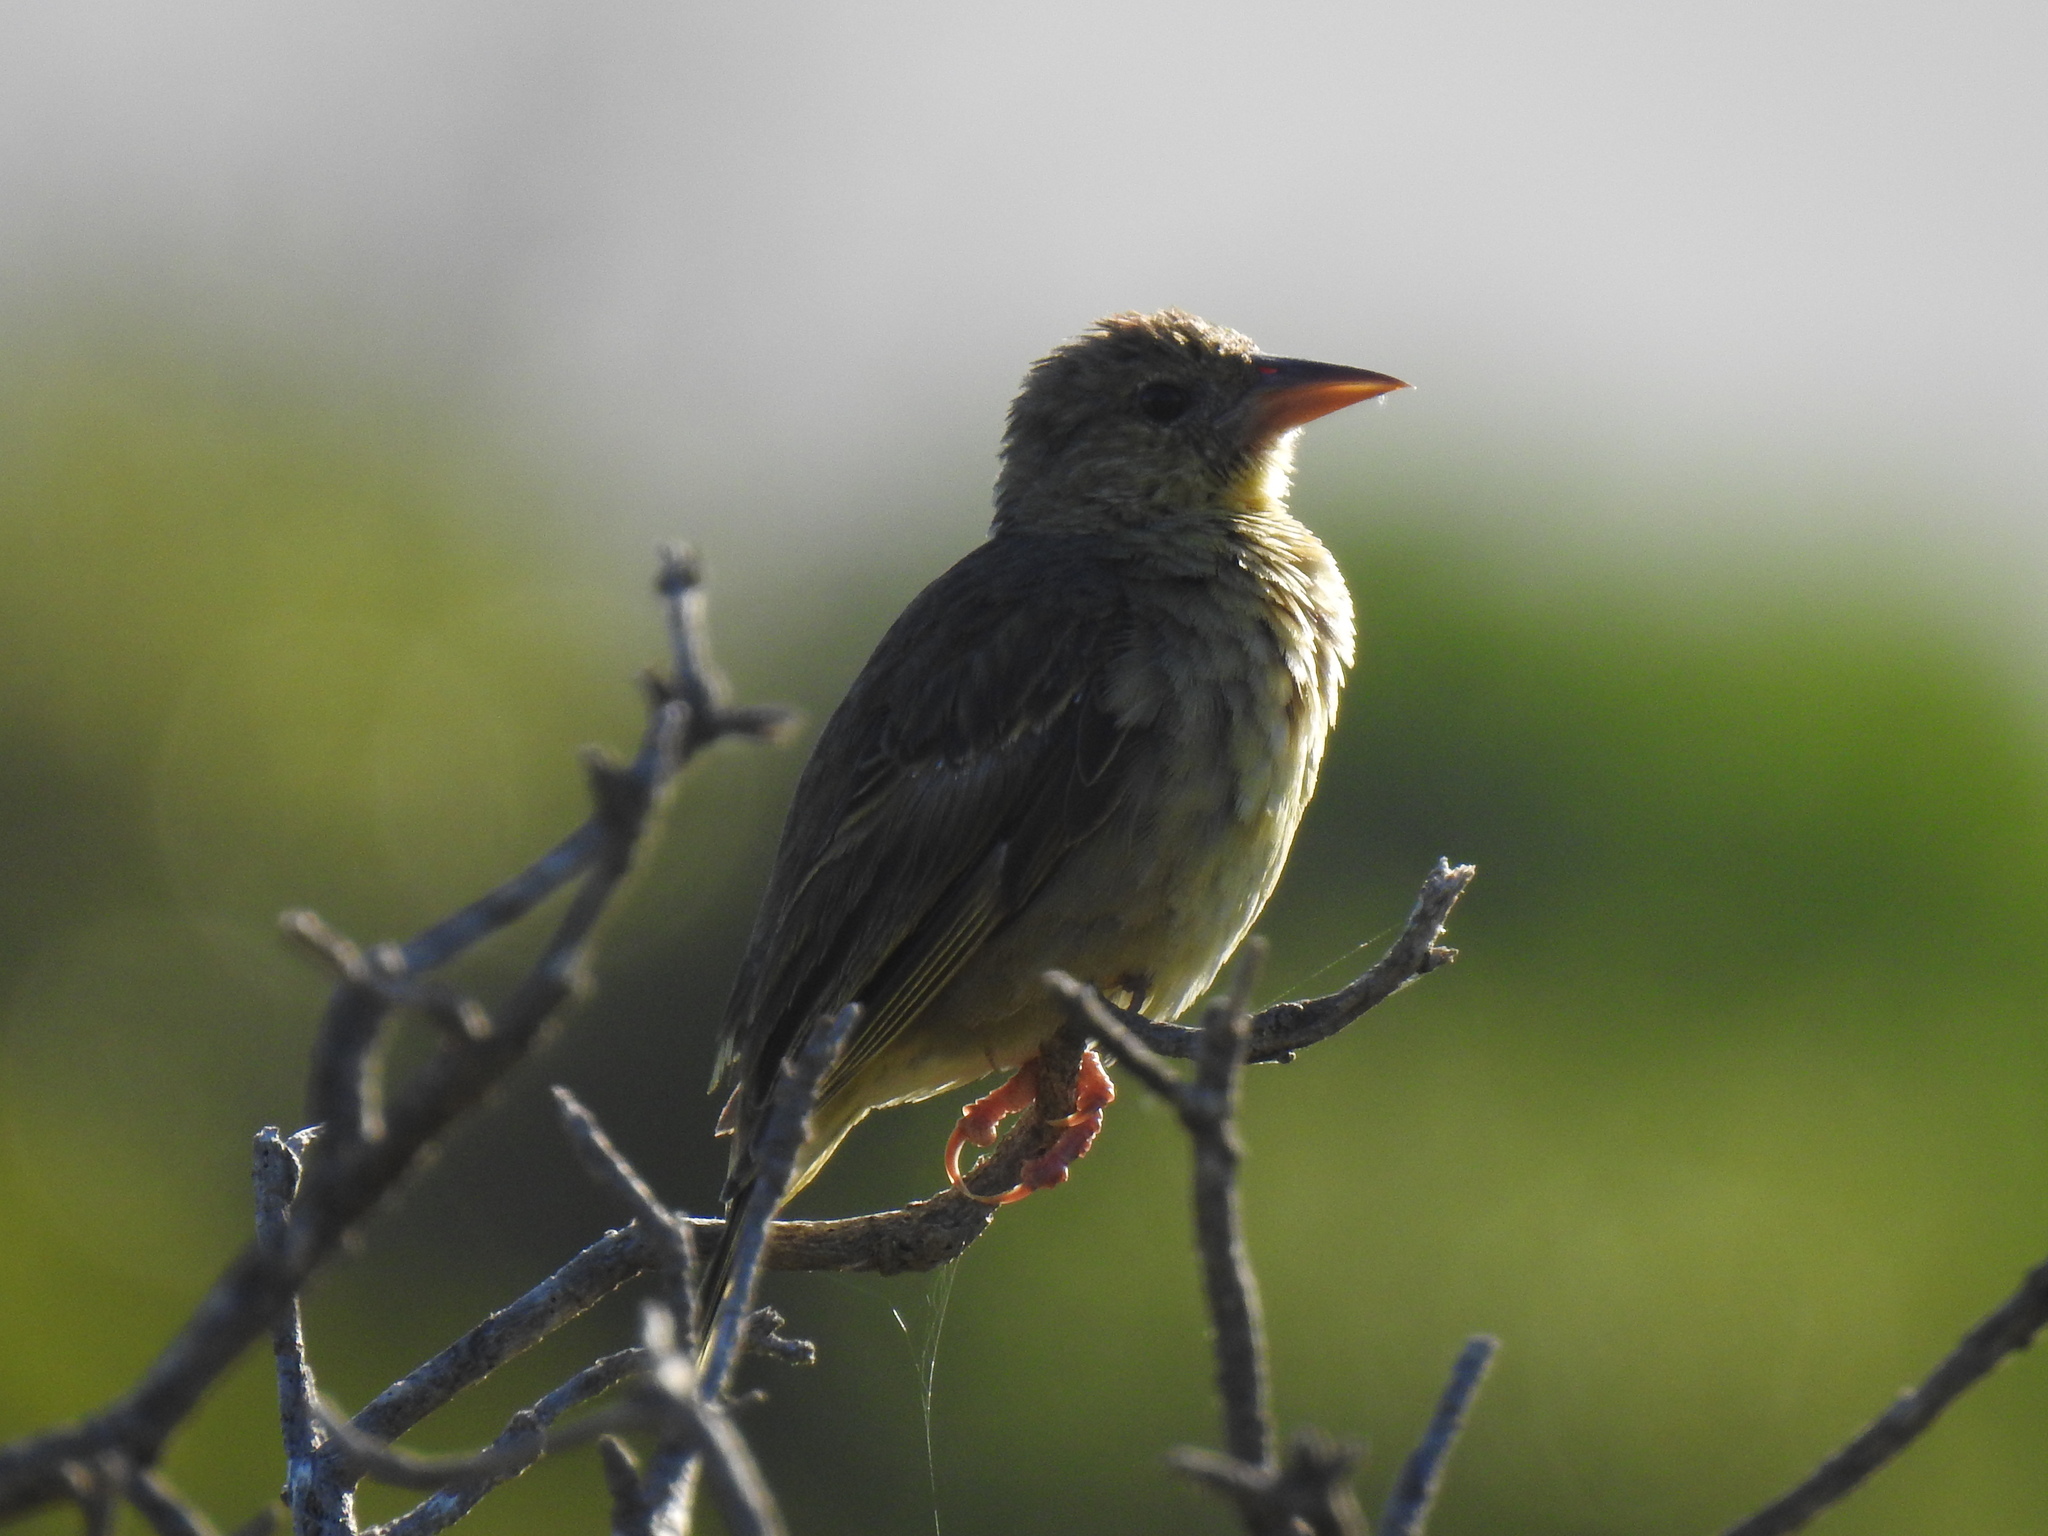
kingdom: Animalia
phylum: Chordata
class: Aves
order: Passeriformes
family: Ploceidae
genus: Ploceus
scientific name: Ploceus capensis
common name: Cape weaver
